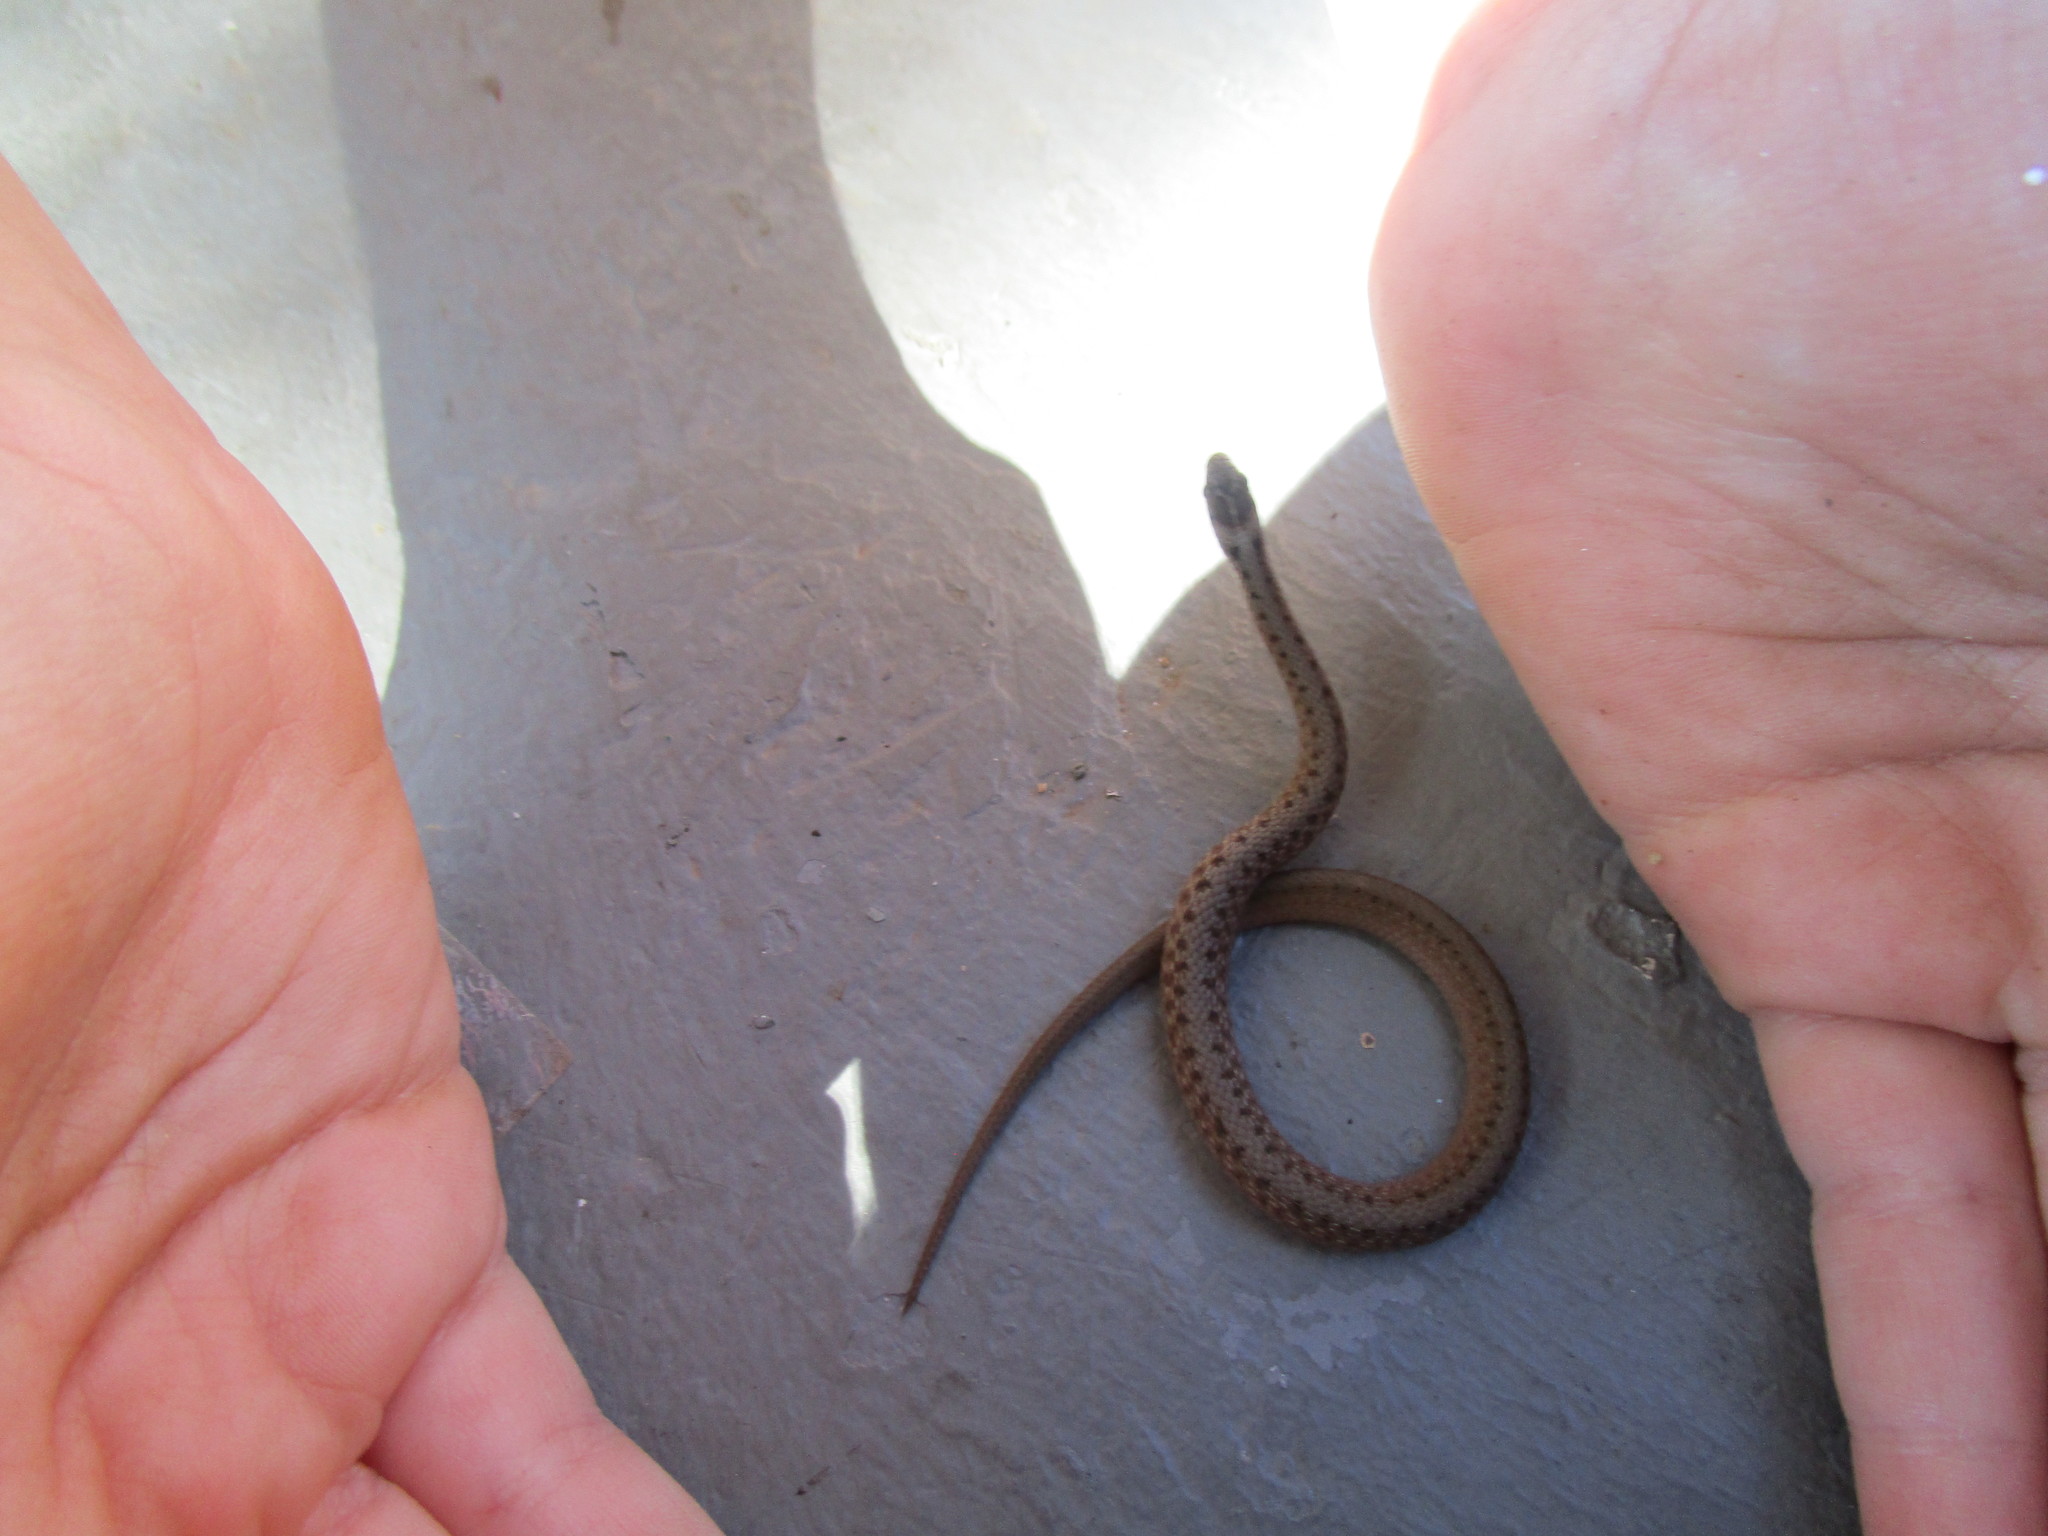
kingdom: Animalia
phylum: Chordata
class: Squamata
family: Colubridae
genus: Storeria
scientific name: Storeria dekayi
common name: (dekay’s) brown snake
